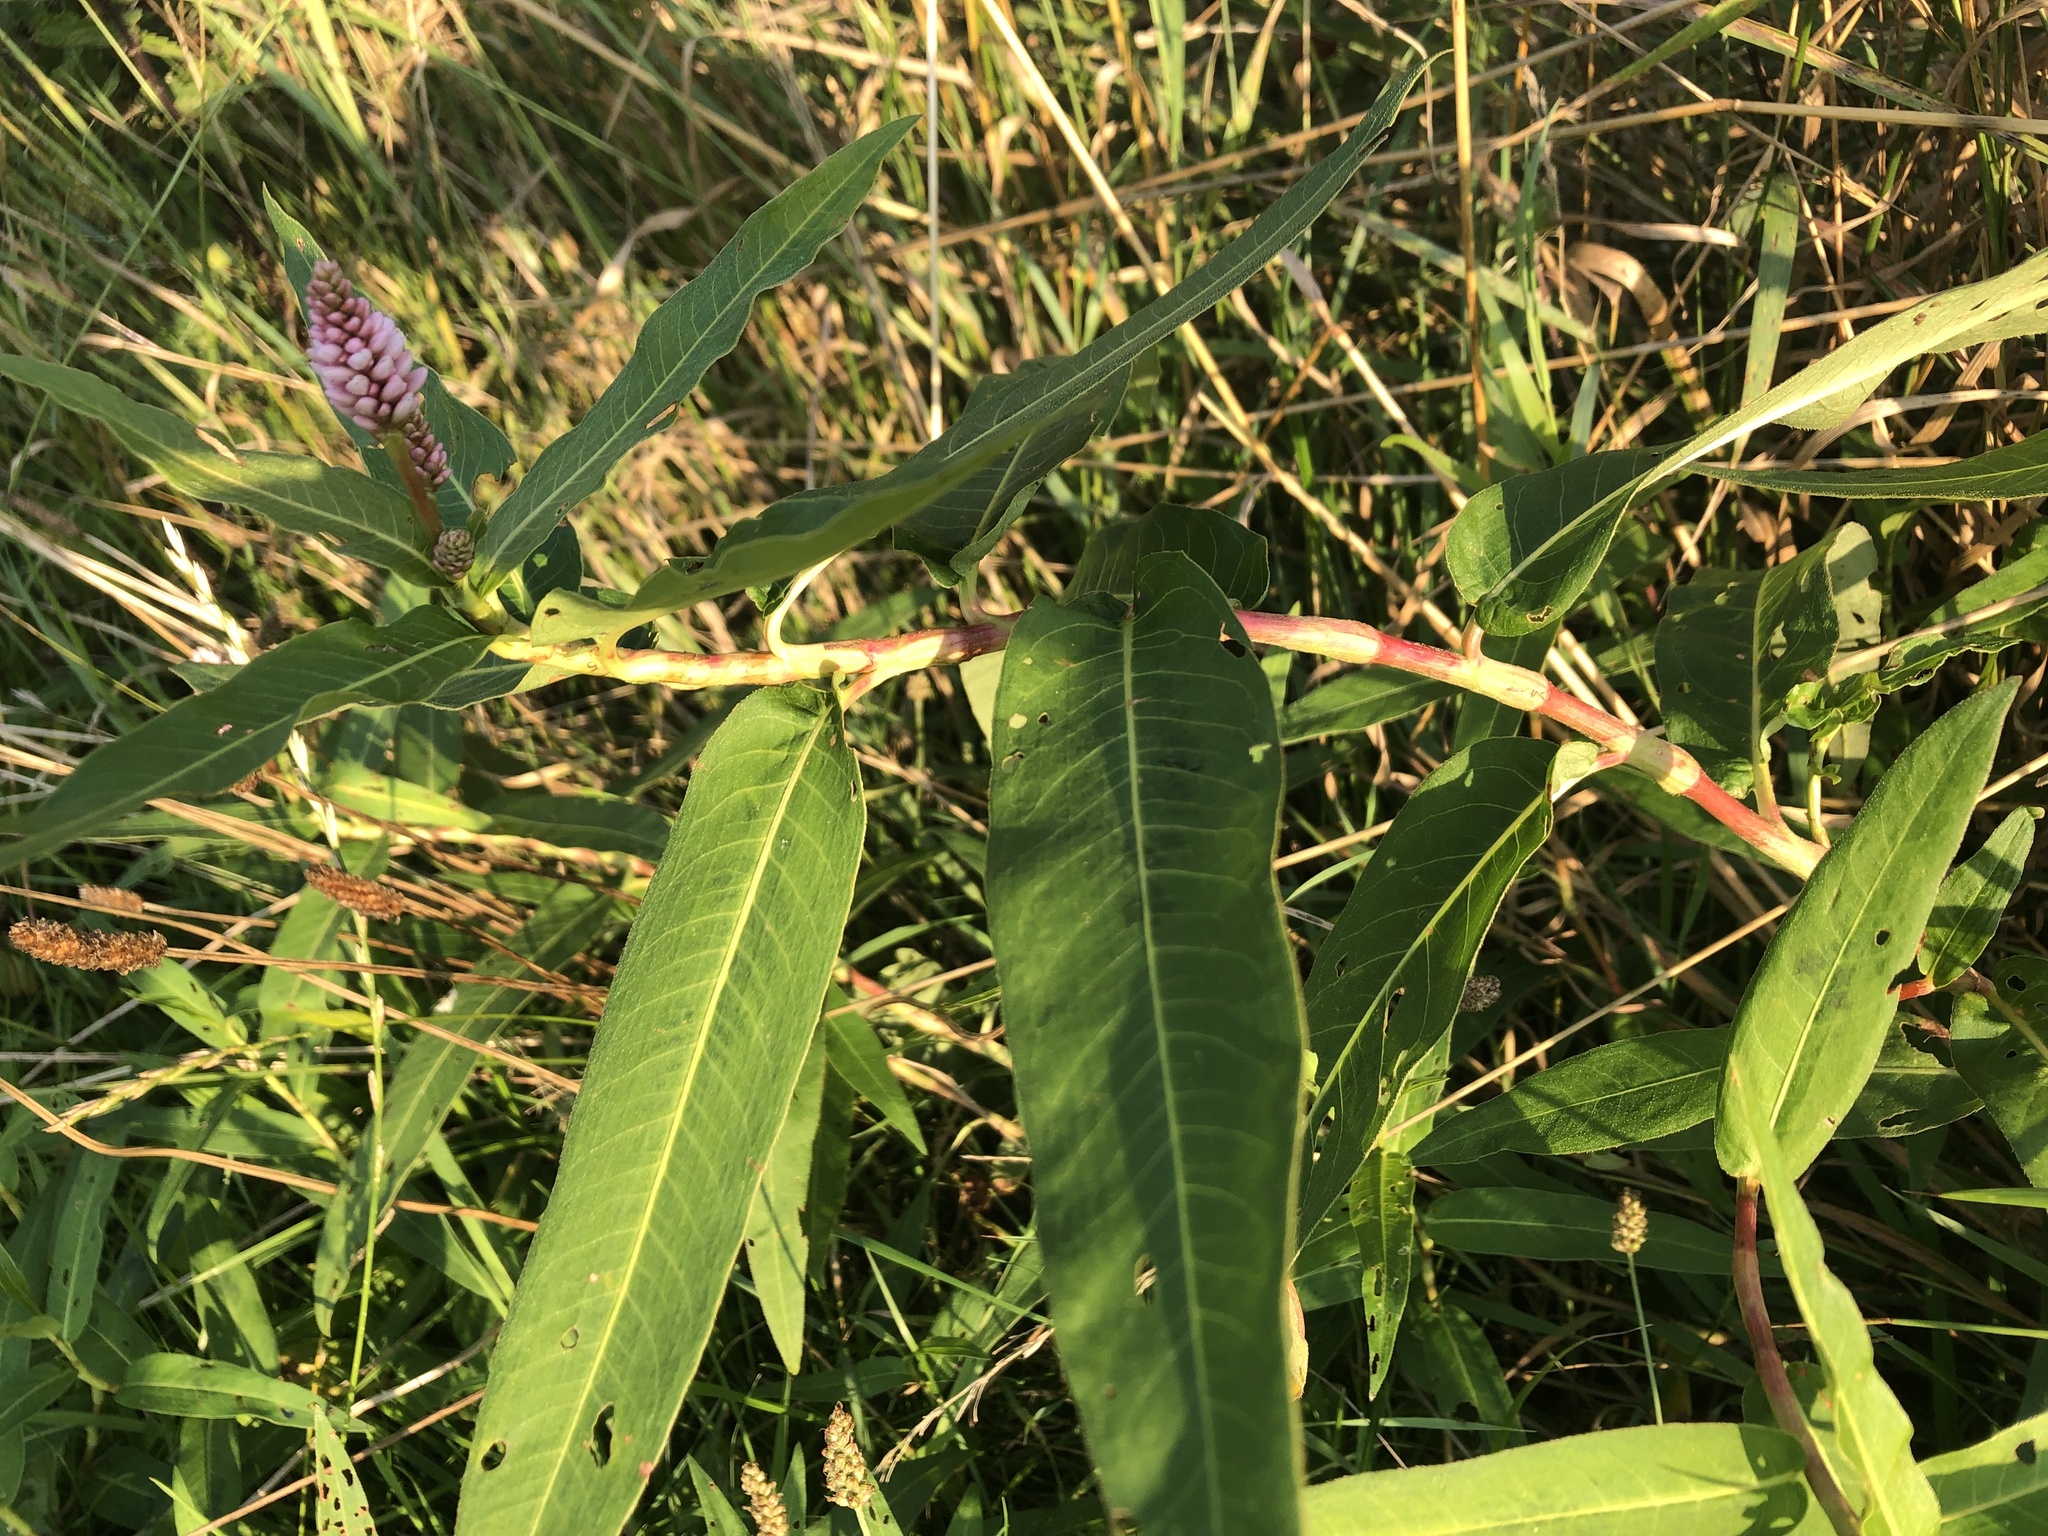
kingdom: Plantae
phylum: Tracheophyta
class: Magnoliopsida
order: Caryophyllales
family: Polygonaceae
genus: Persicaria
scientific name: Persicaria amphibia
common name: Amphibious bistort
